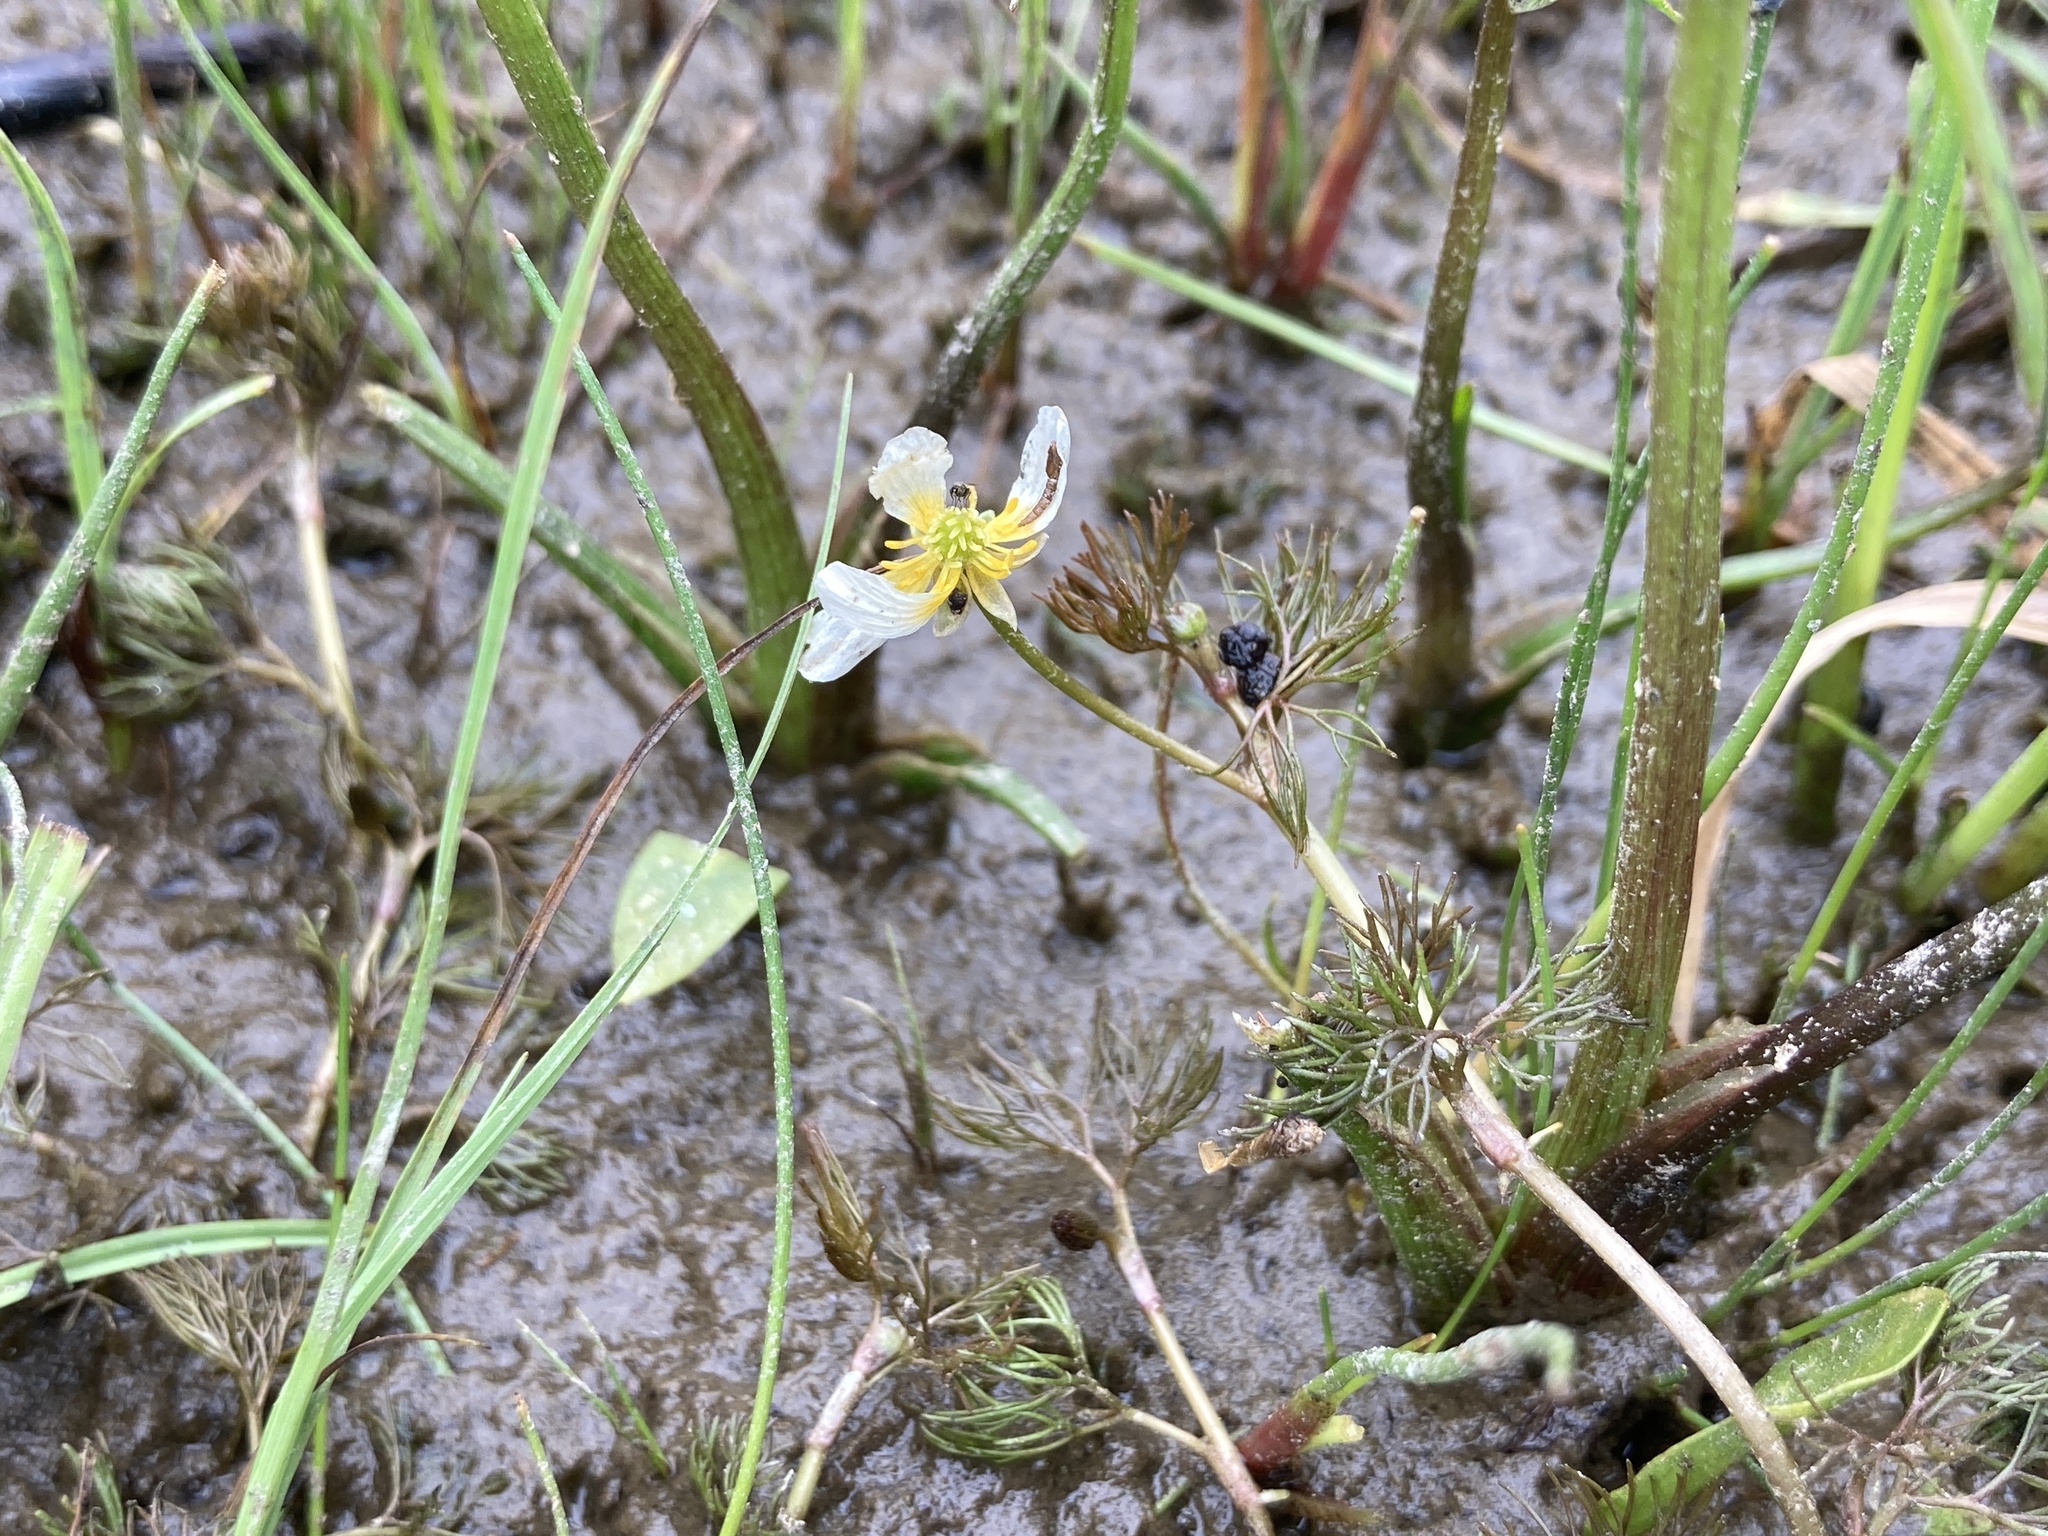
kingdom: Plantae
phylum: Tracheophyta
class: Magnoliopsida
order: Ranunculales
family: Ranunculaceae
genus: Ranunculus
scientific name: Ranunculus aquatilis
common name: Common water-crowfoot
